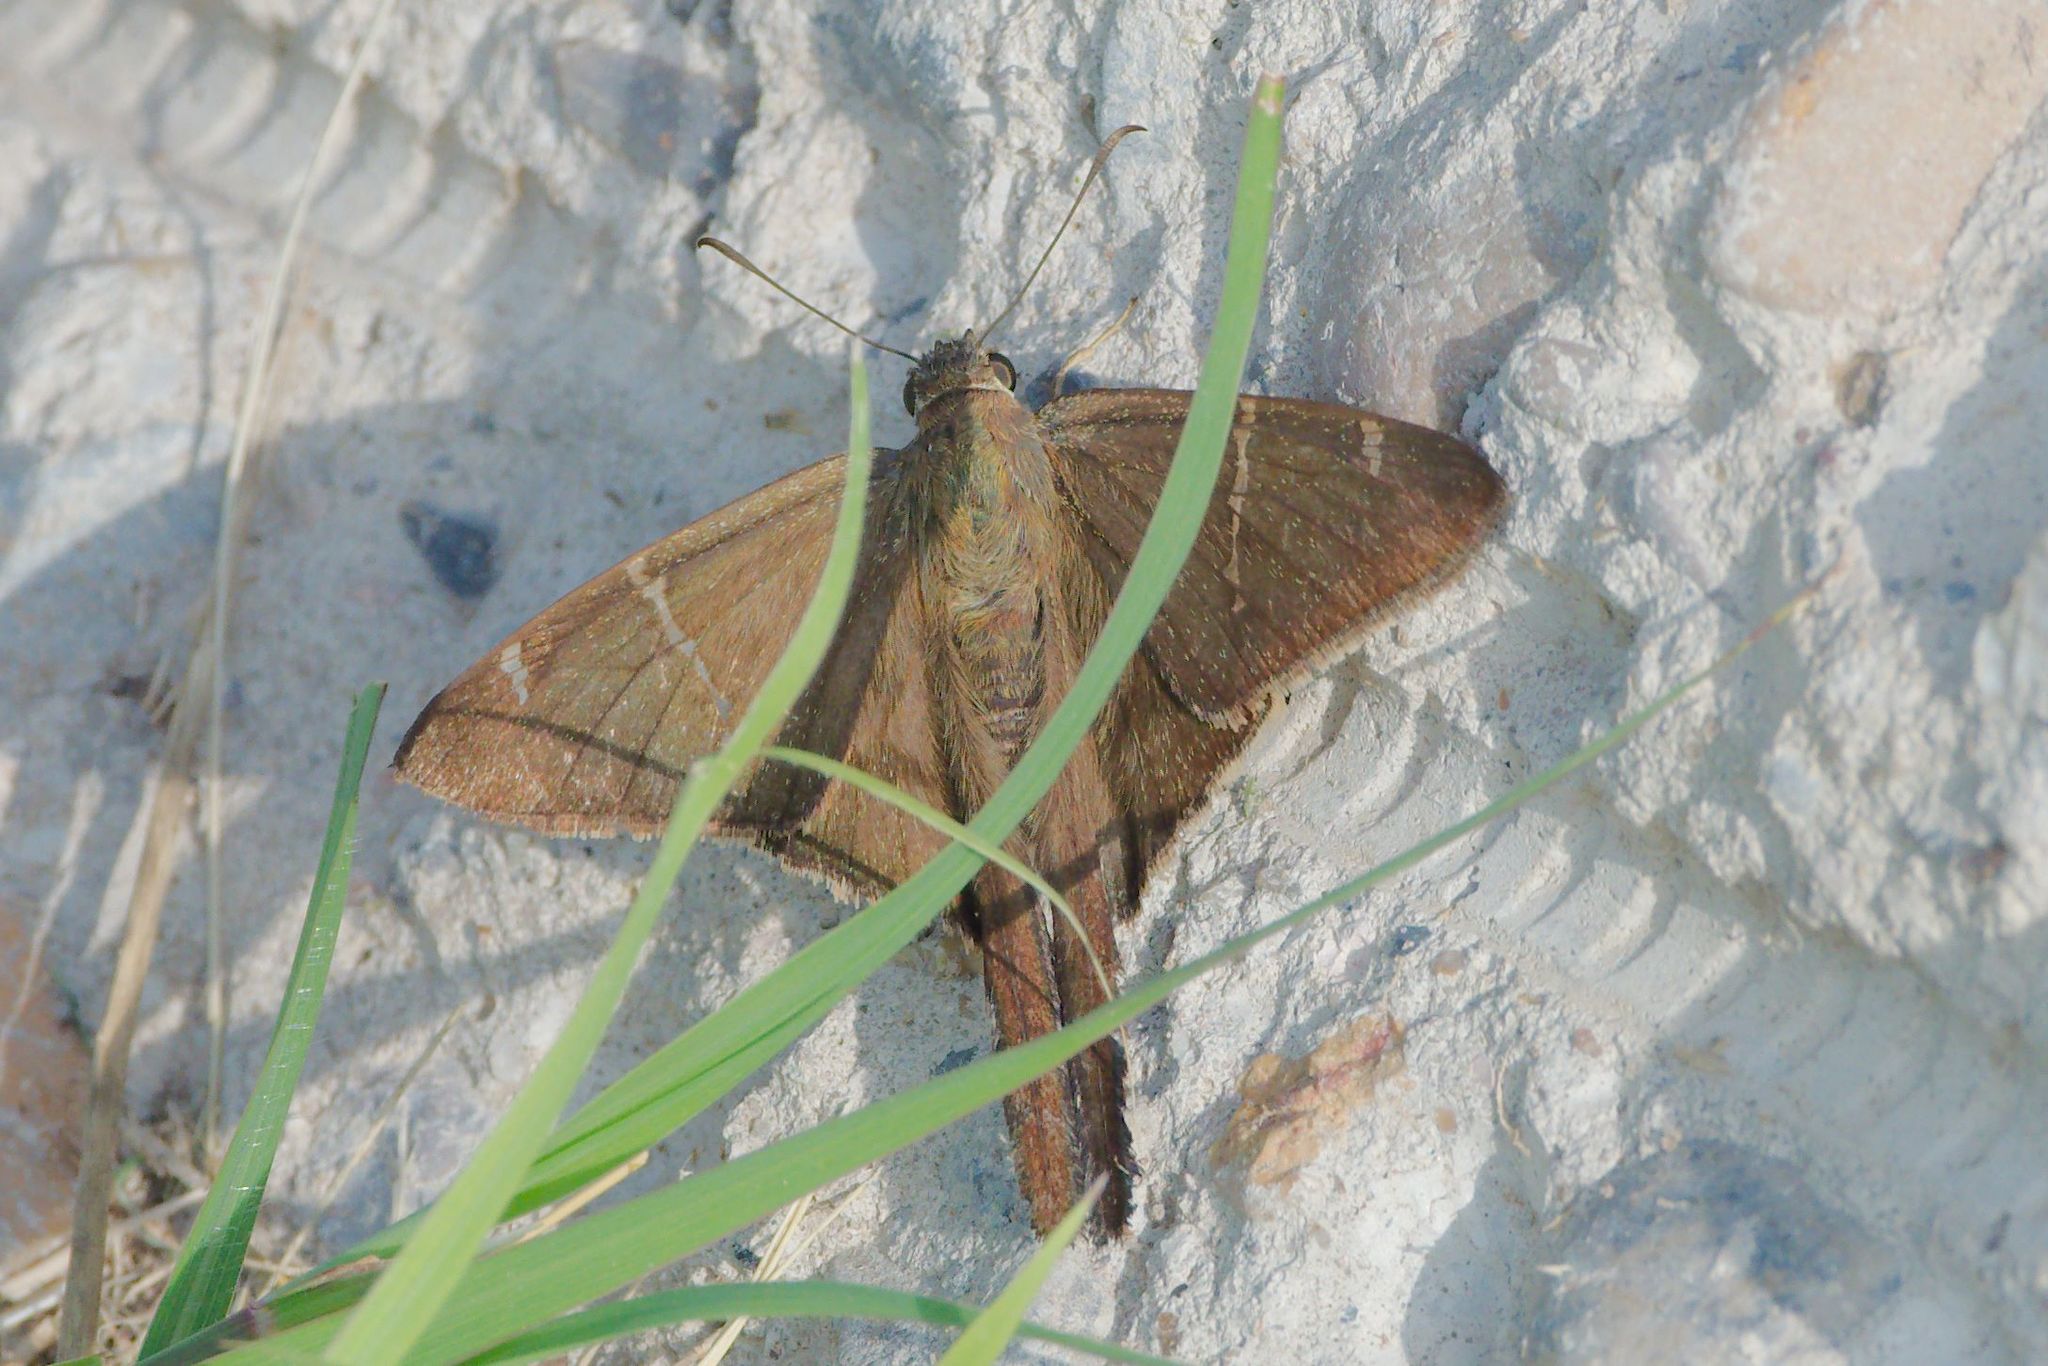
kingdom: Animalia
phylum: Arthropoda
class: Insecta
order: Lepidoptera
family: Hesperiidae
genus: Urbanus
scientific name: Urbanus procne
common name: Brown longtail
